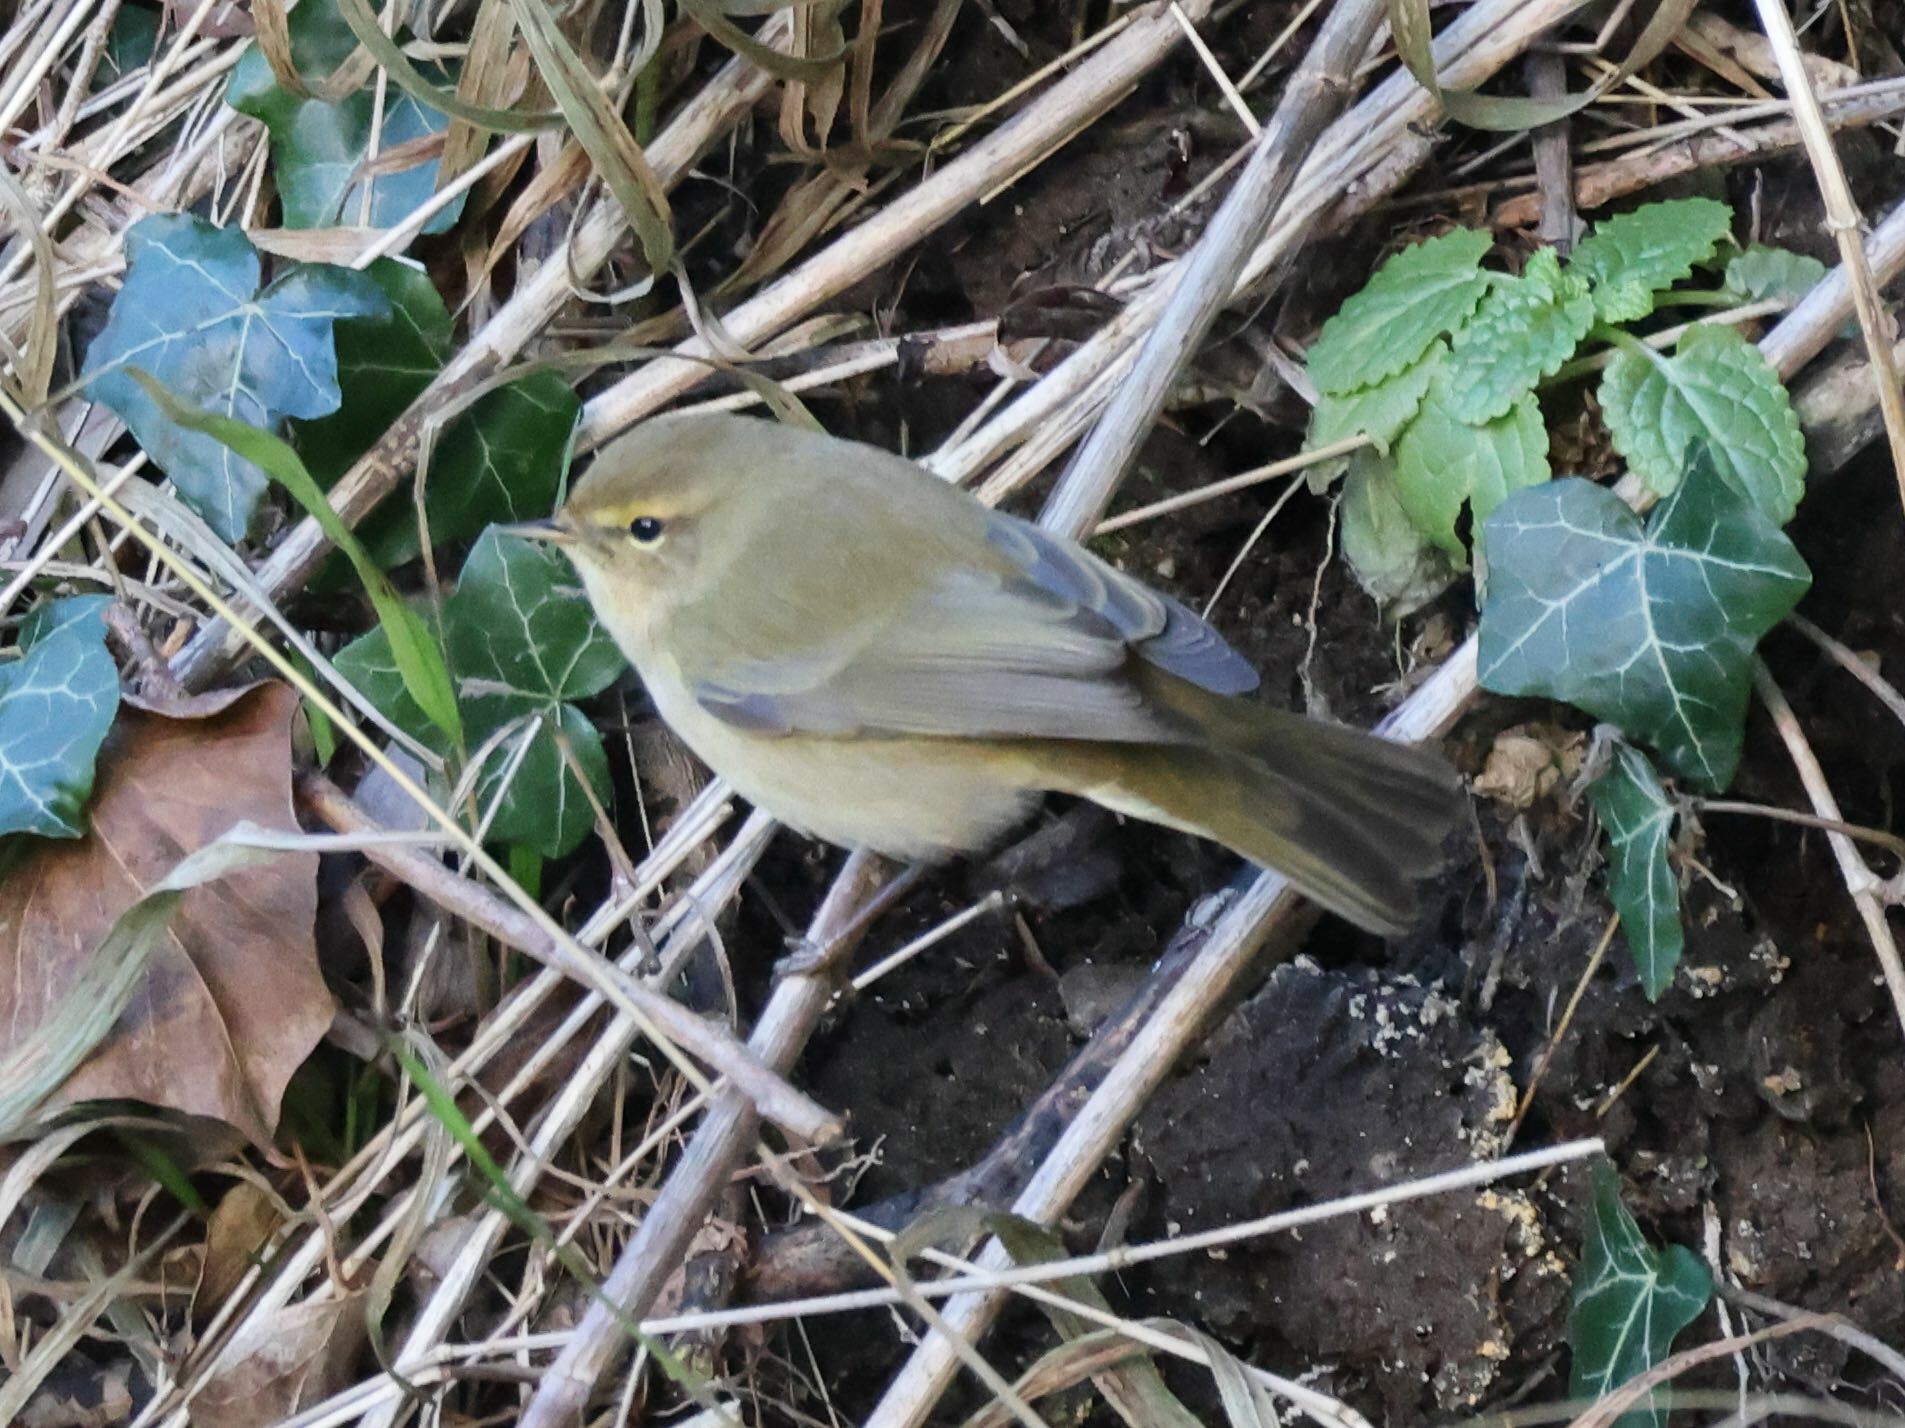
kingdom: Animalia
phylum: Chordata
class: Aves
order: Passeriformes
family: Phylloscopidae
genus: Phylloscopus
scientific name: Phylloscopus collybita
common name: Common chiffchaff
